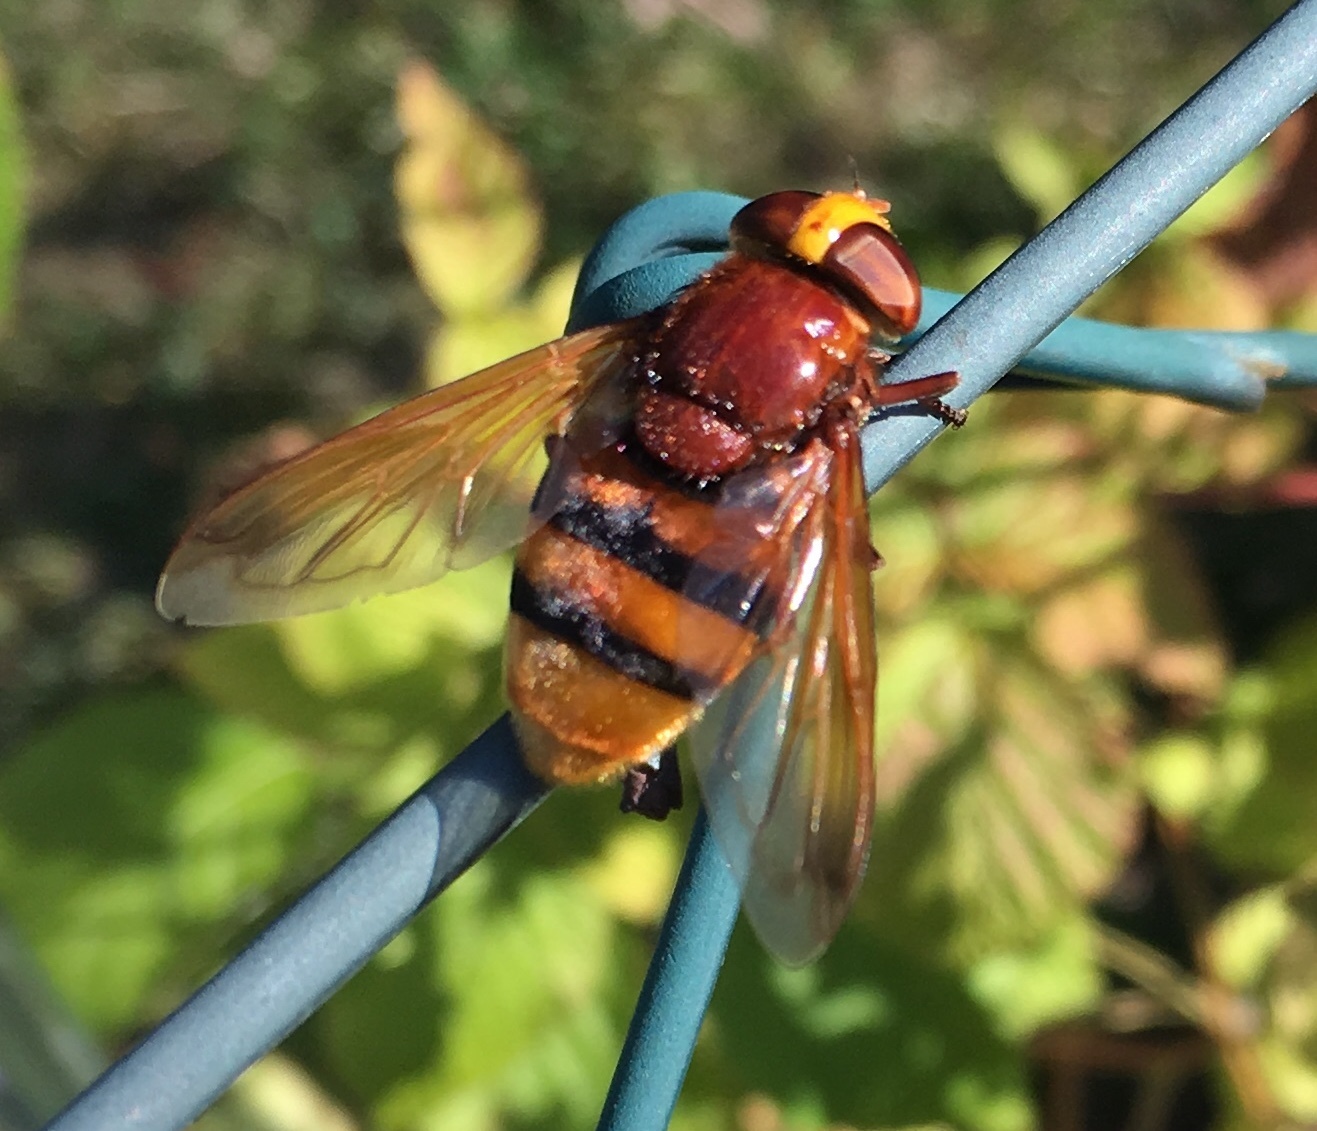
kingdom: Animalia
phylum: Arthropoda
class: Insecta
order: Diptera
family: Syrphidae
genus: Volucella
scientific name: Volucella zonaria
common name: Hornet hoverfly
